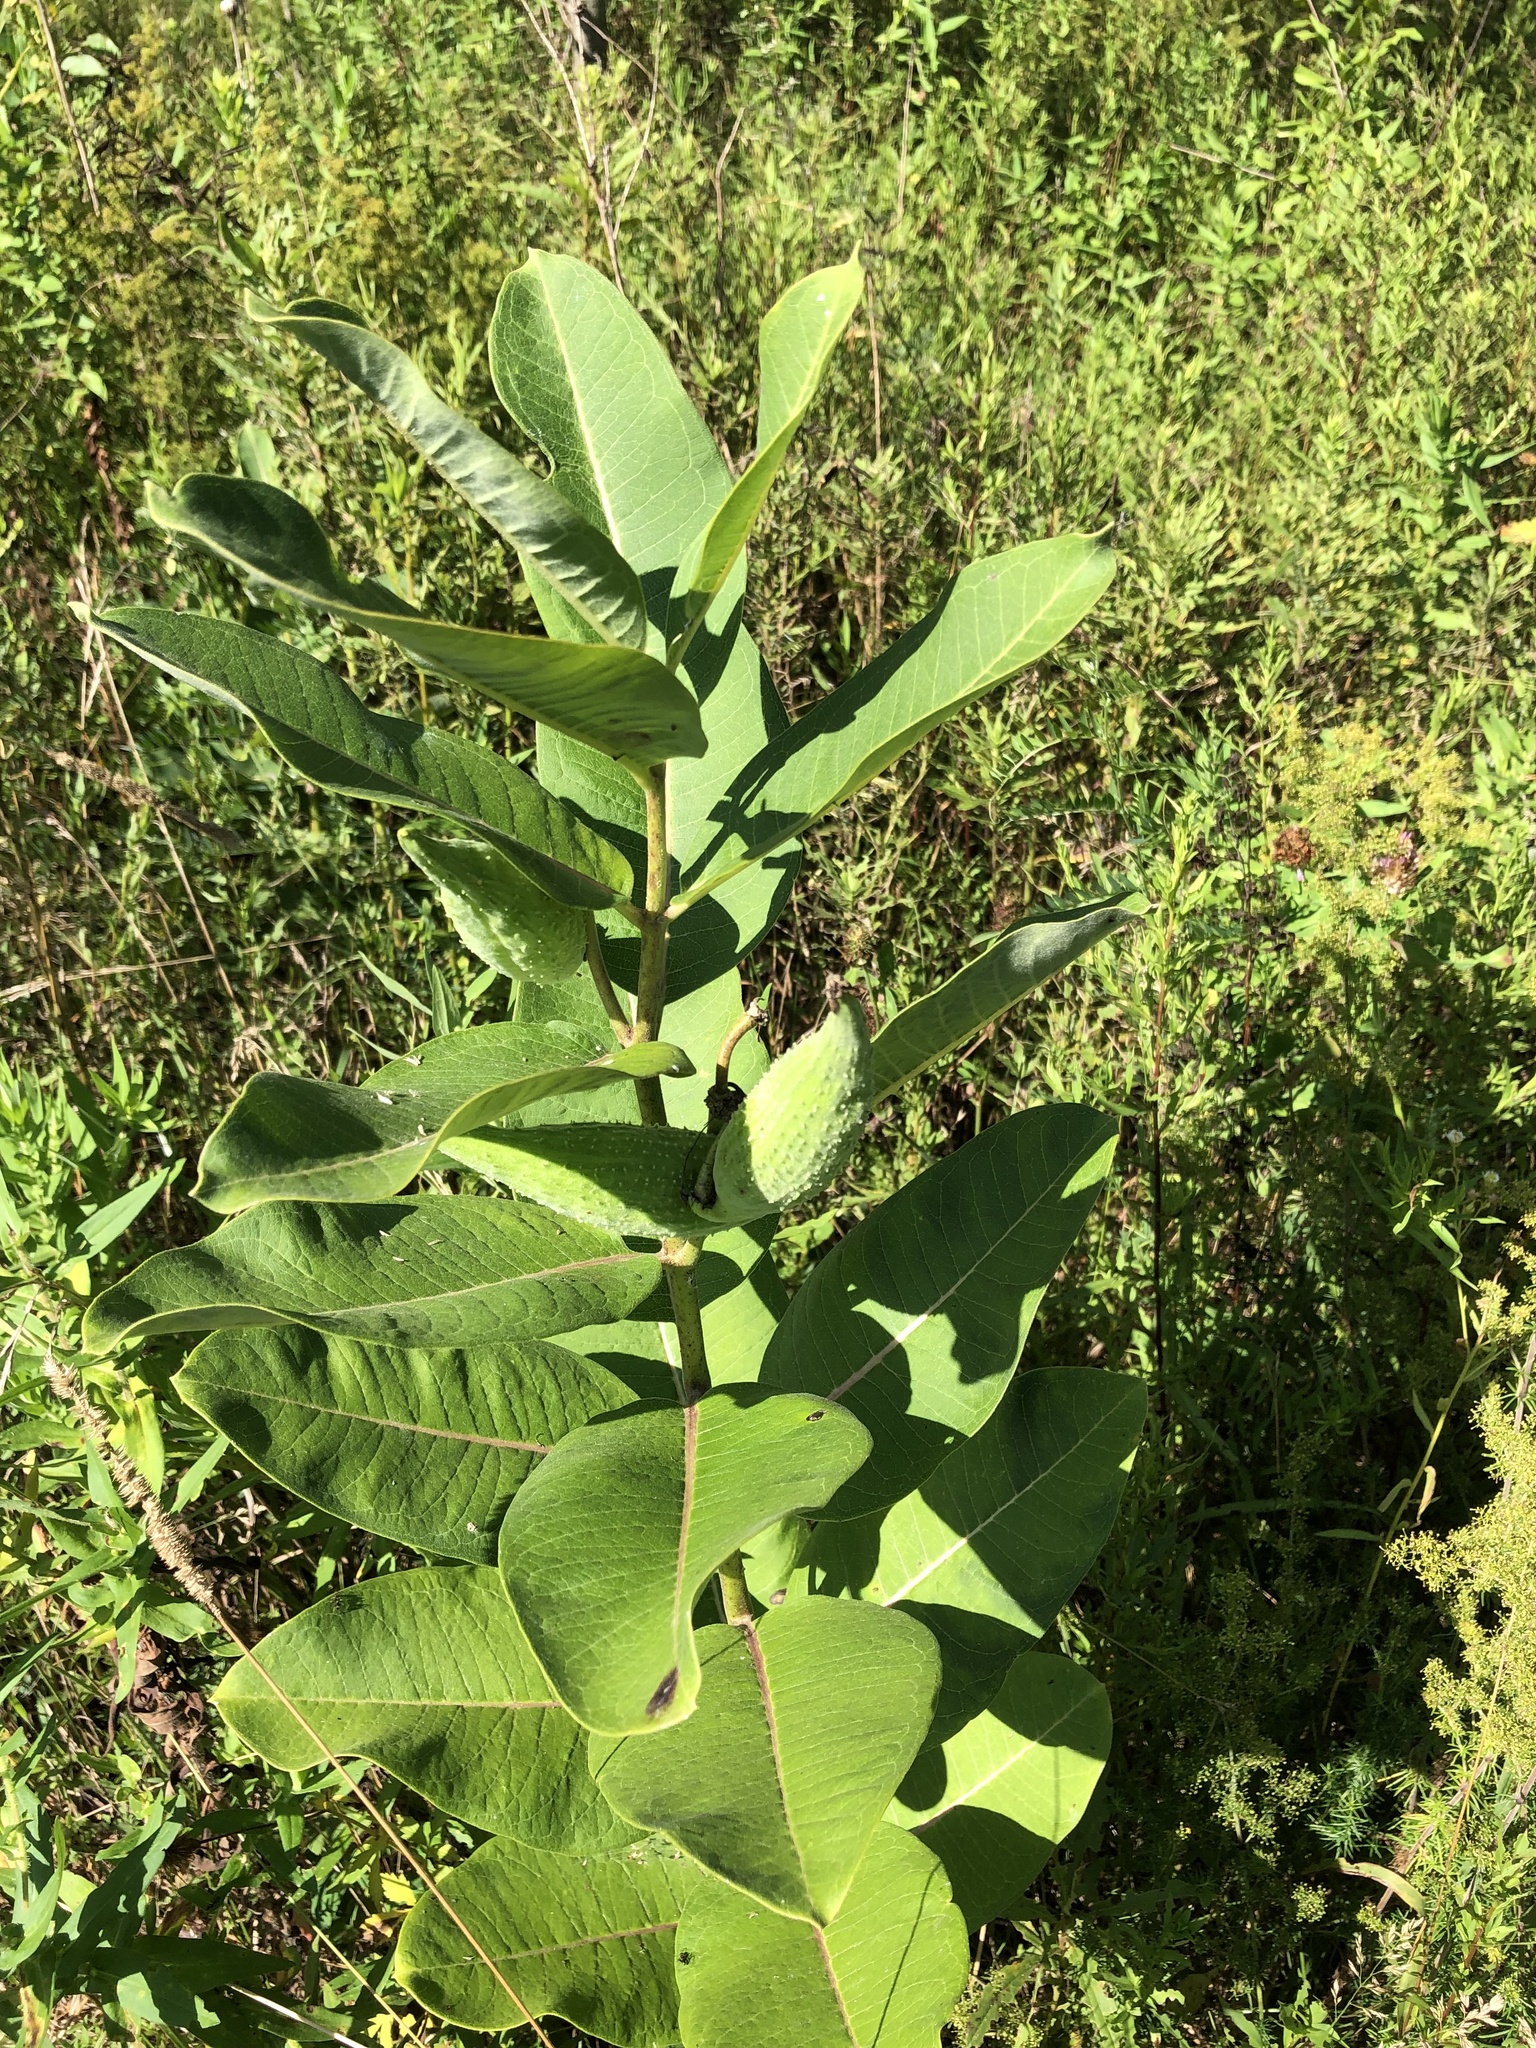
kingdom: Plantae
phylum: Tracheophyta
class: Magnoliopsida
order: Gentianales
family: Apocynaceae
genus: Asclepias
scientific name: Asclepias syriaca
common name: Common milkweed
